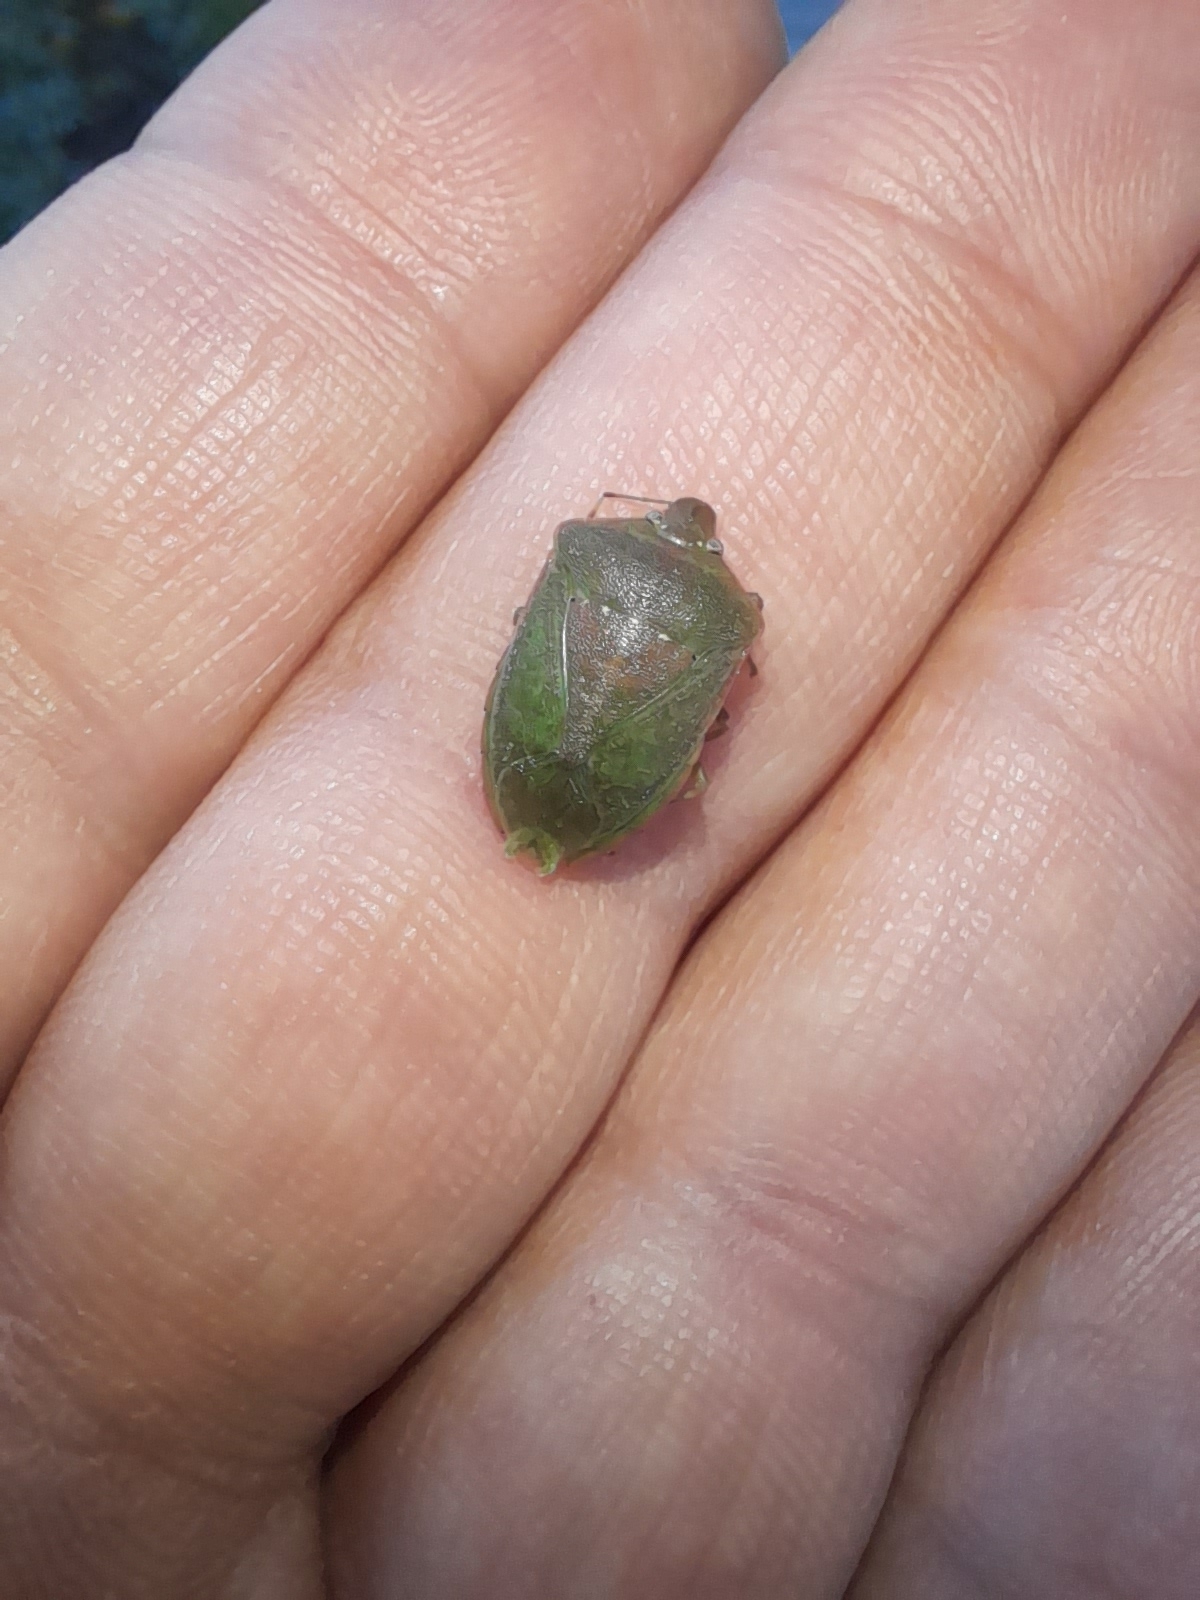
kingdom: Animalia
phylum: Arthropoda
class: Insecta
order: Hemiptera
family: Pentatomidae
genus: Nezara
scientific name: Nezara viridula
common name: Southern green stink bug
